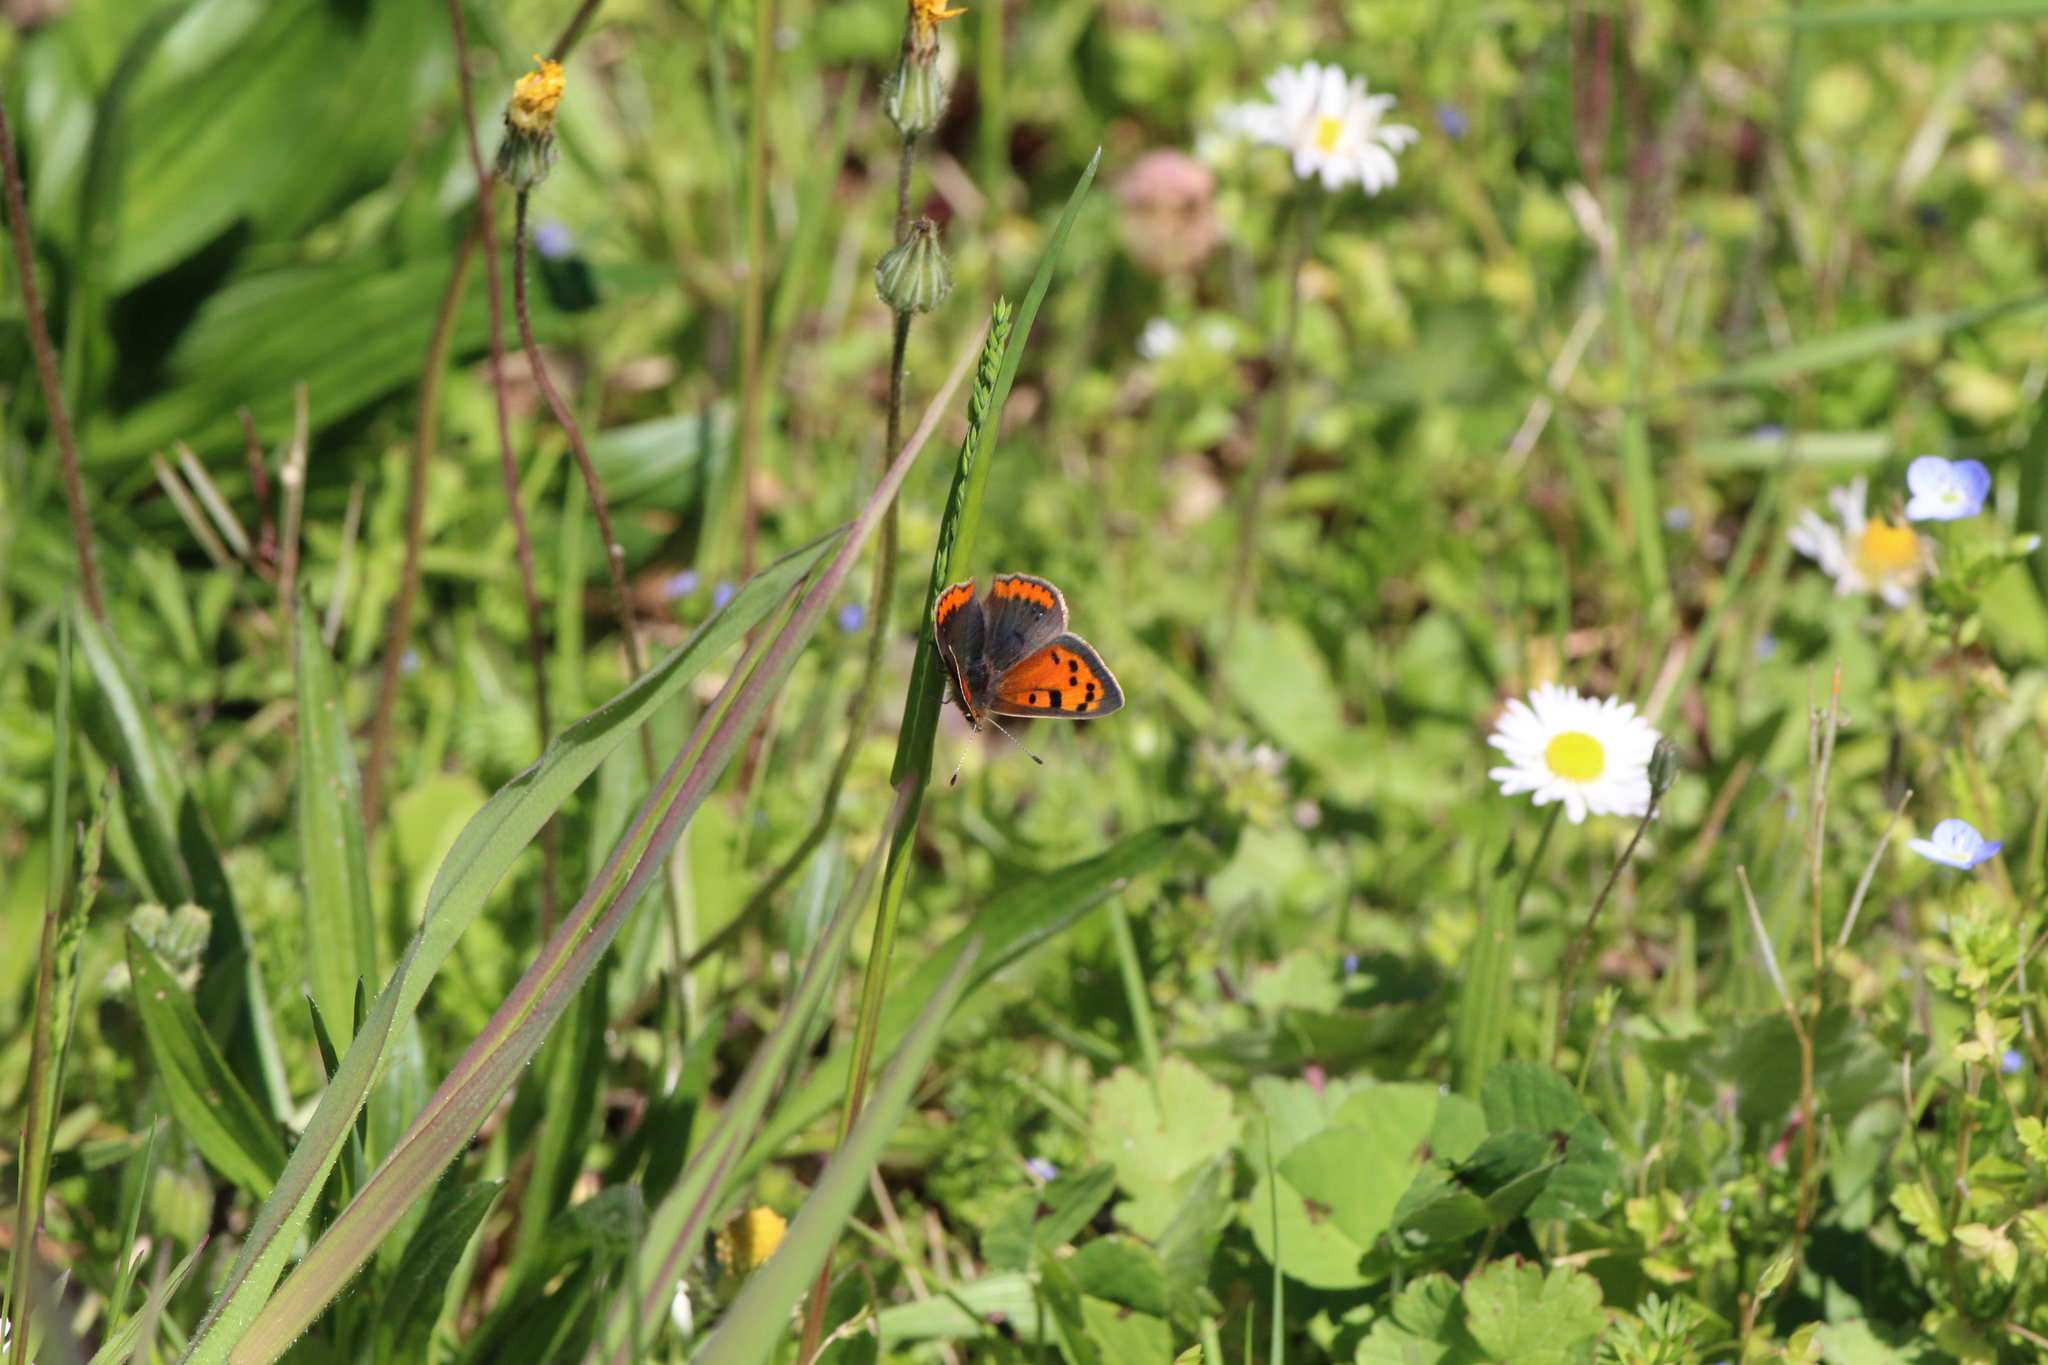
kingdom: Animalia
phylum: Arthropoda
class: Insecta
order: Lepidoptera
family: Lycaenidae
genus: Lycaena
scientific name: Lycaena phlaeas
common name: Small copper
